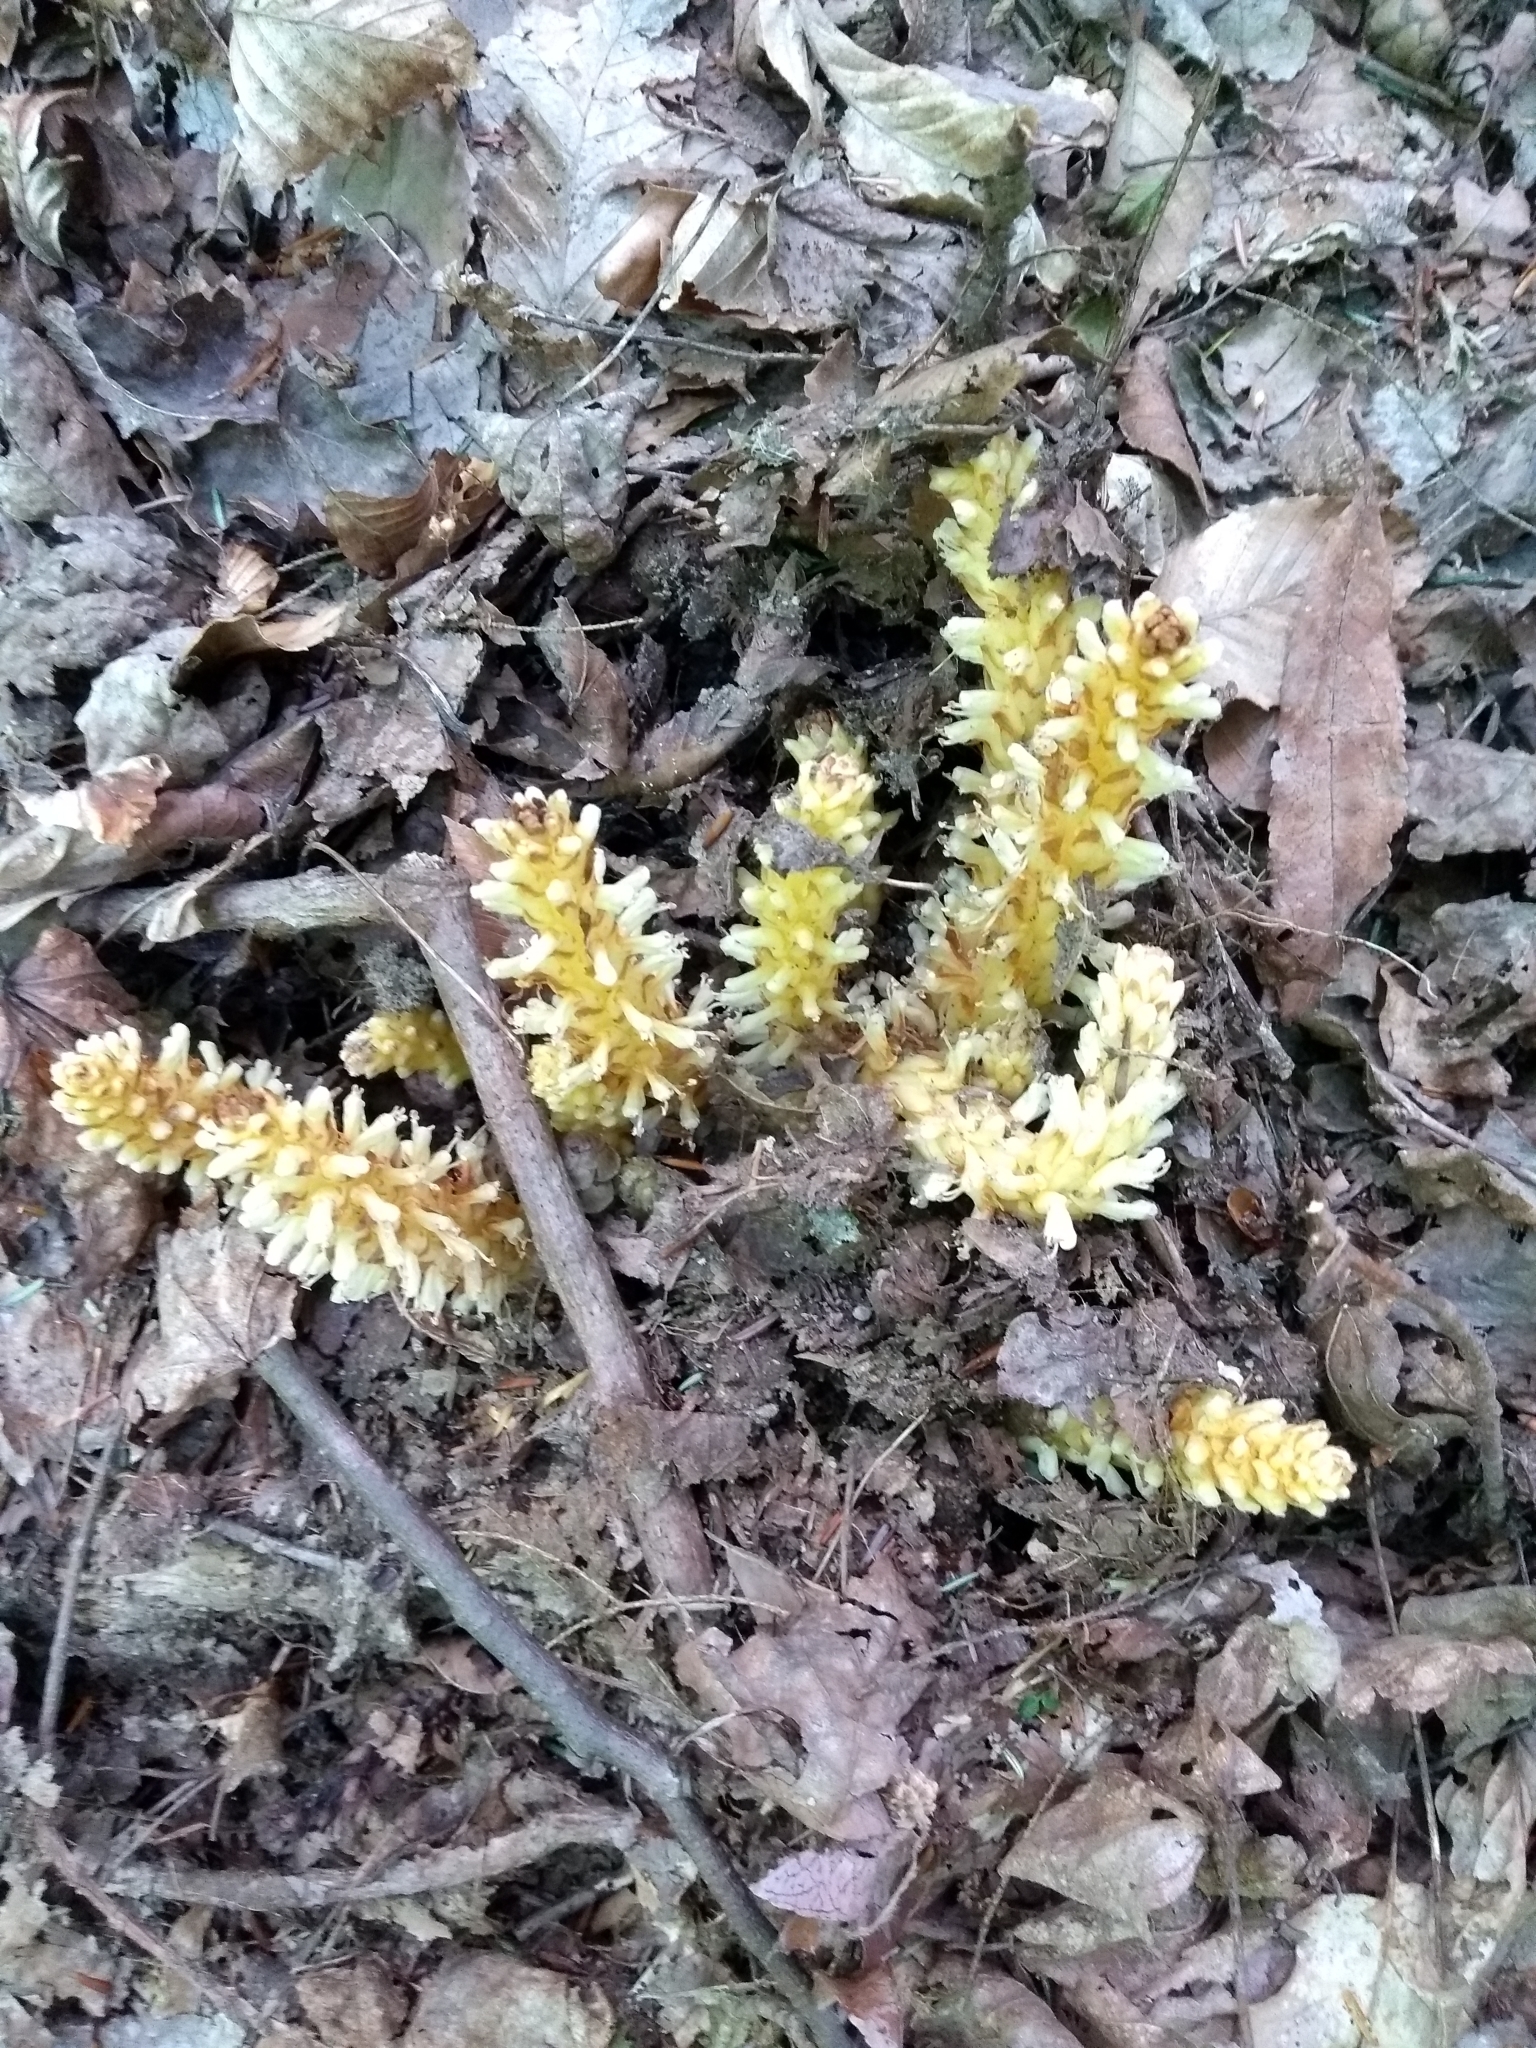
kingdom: Plantae
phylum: Tracheophyta
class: Magnoliopsida
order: Lamiales
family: Orobanchaceae
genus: Conopholis
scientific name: Conopholis americana
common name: American cancer-root
